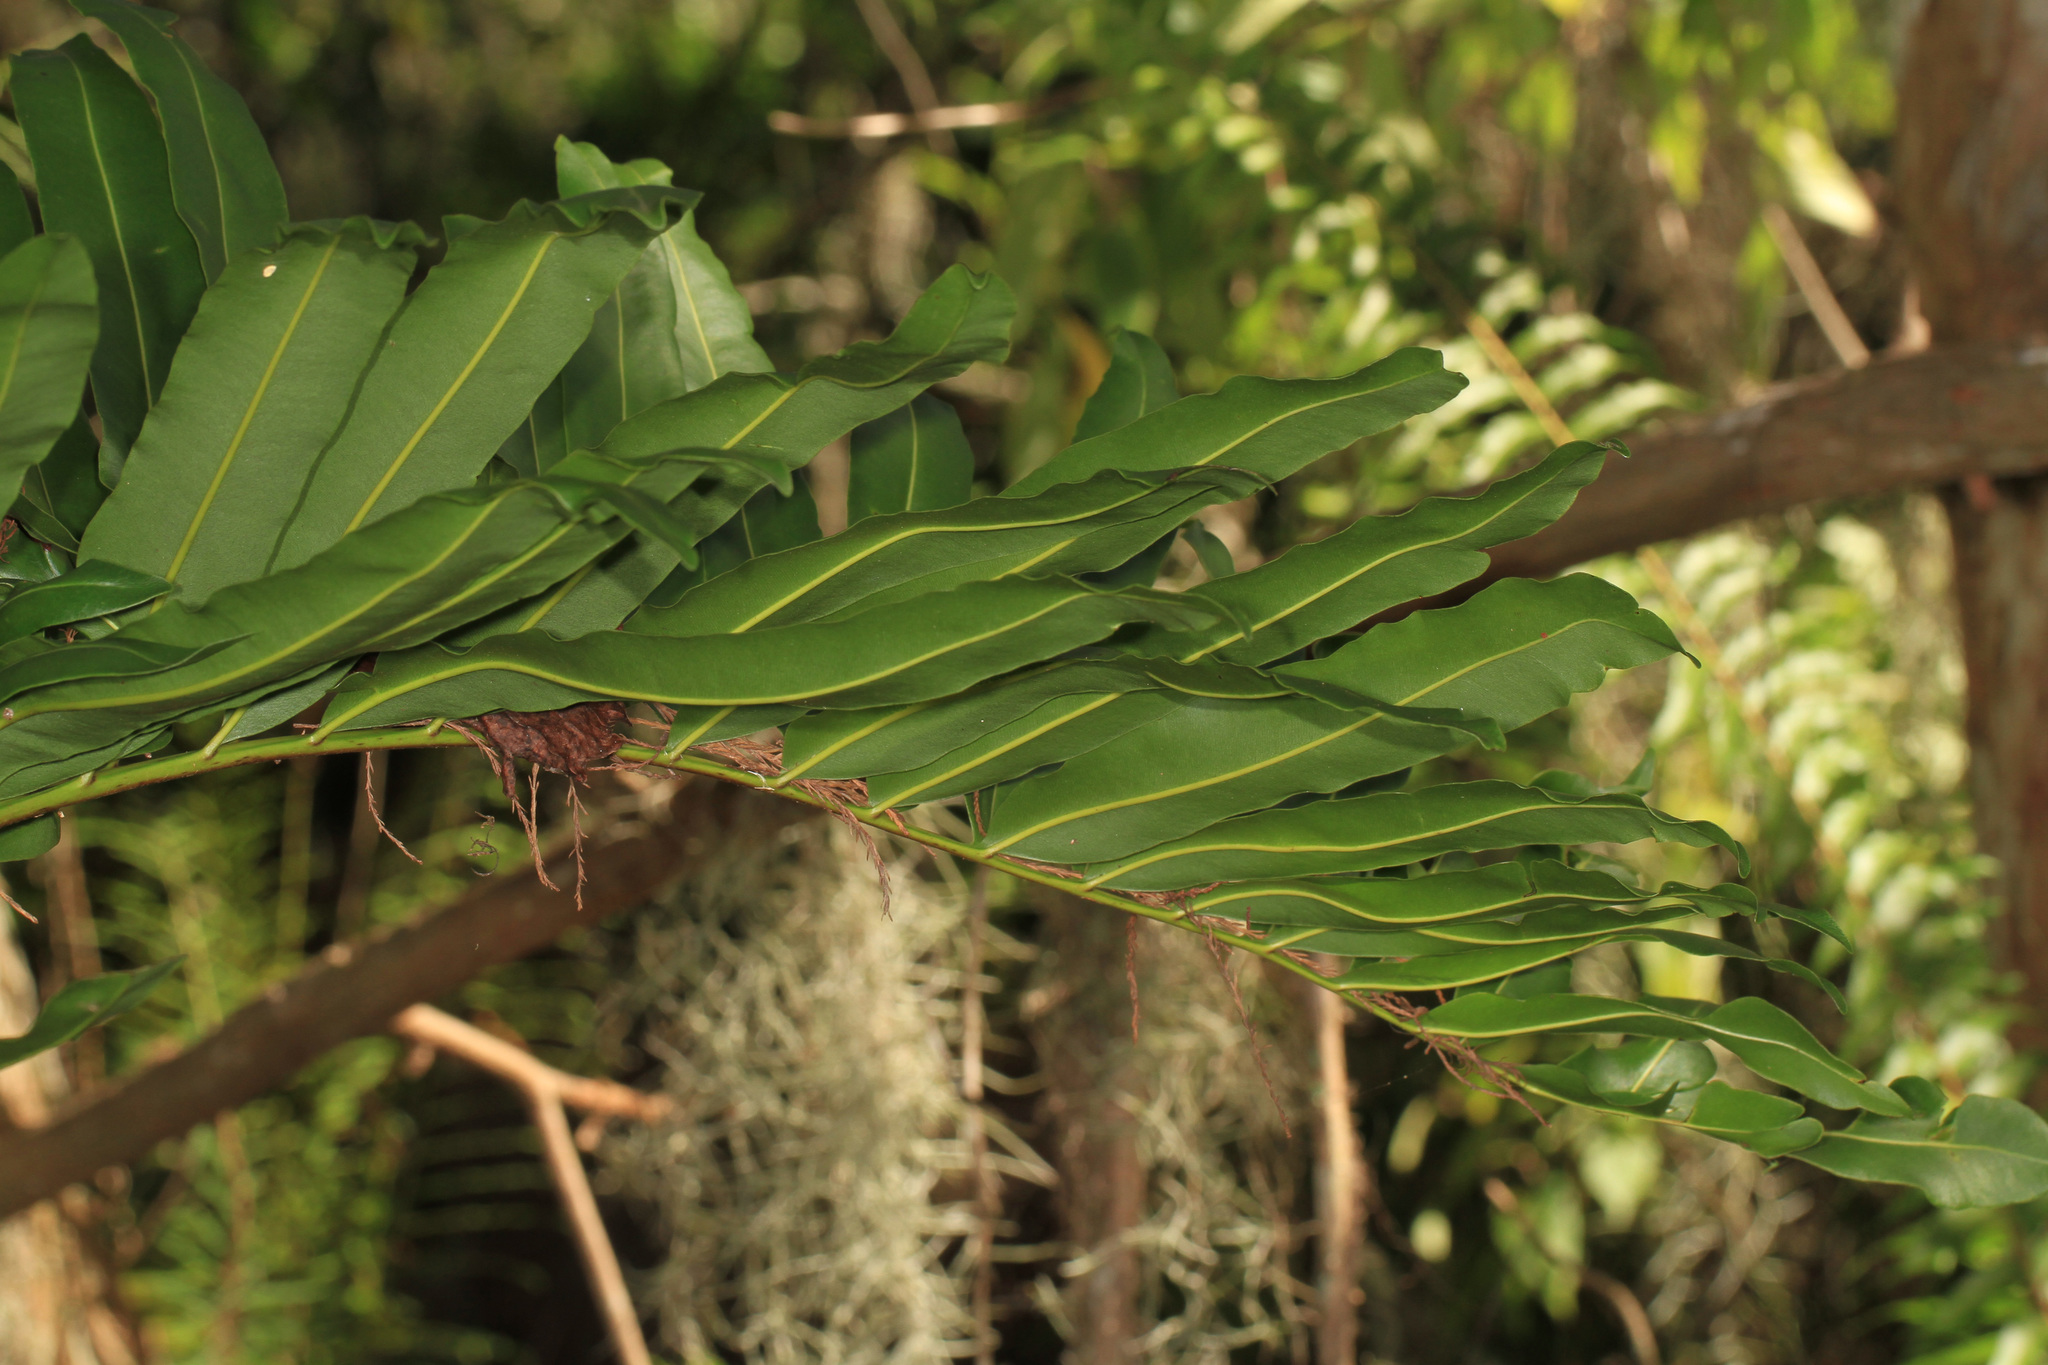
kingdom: Plantae
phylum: Tracheophyta
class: Polypodiopsida
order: Polypodiales
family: Pteridaceae
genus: Acrostichum
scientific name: Acrostichum danaeifolium
